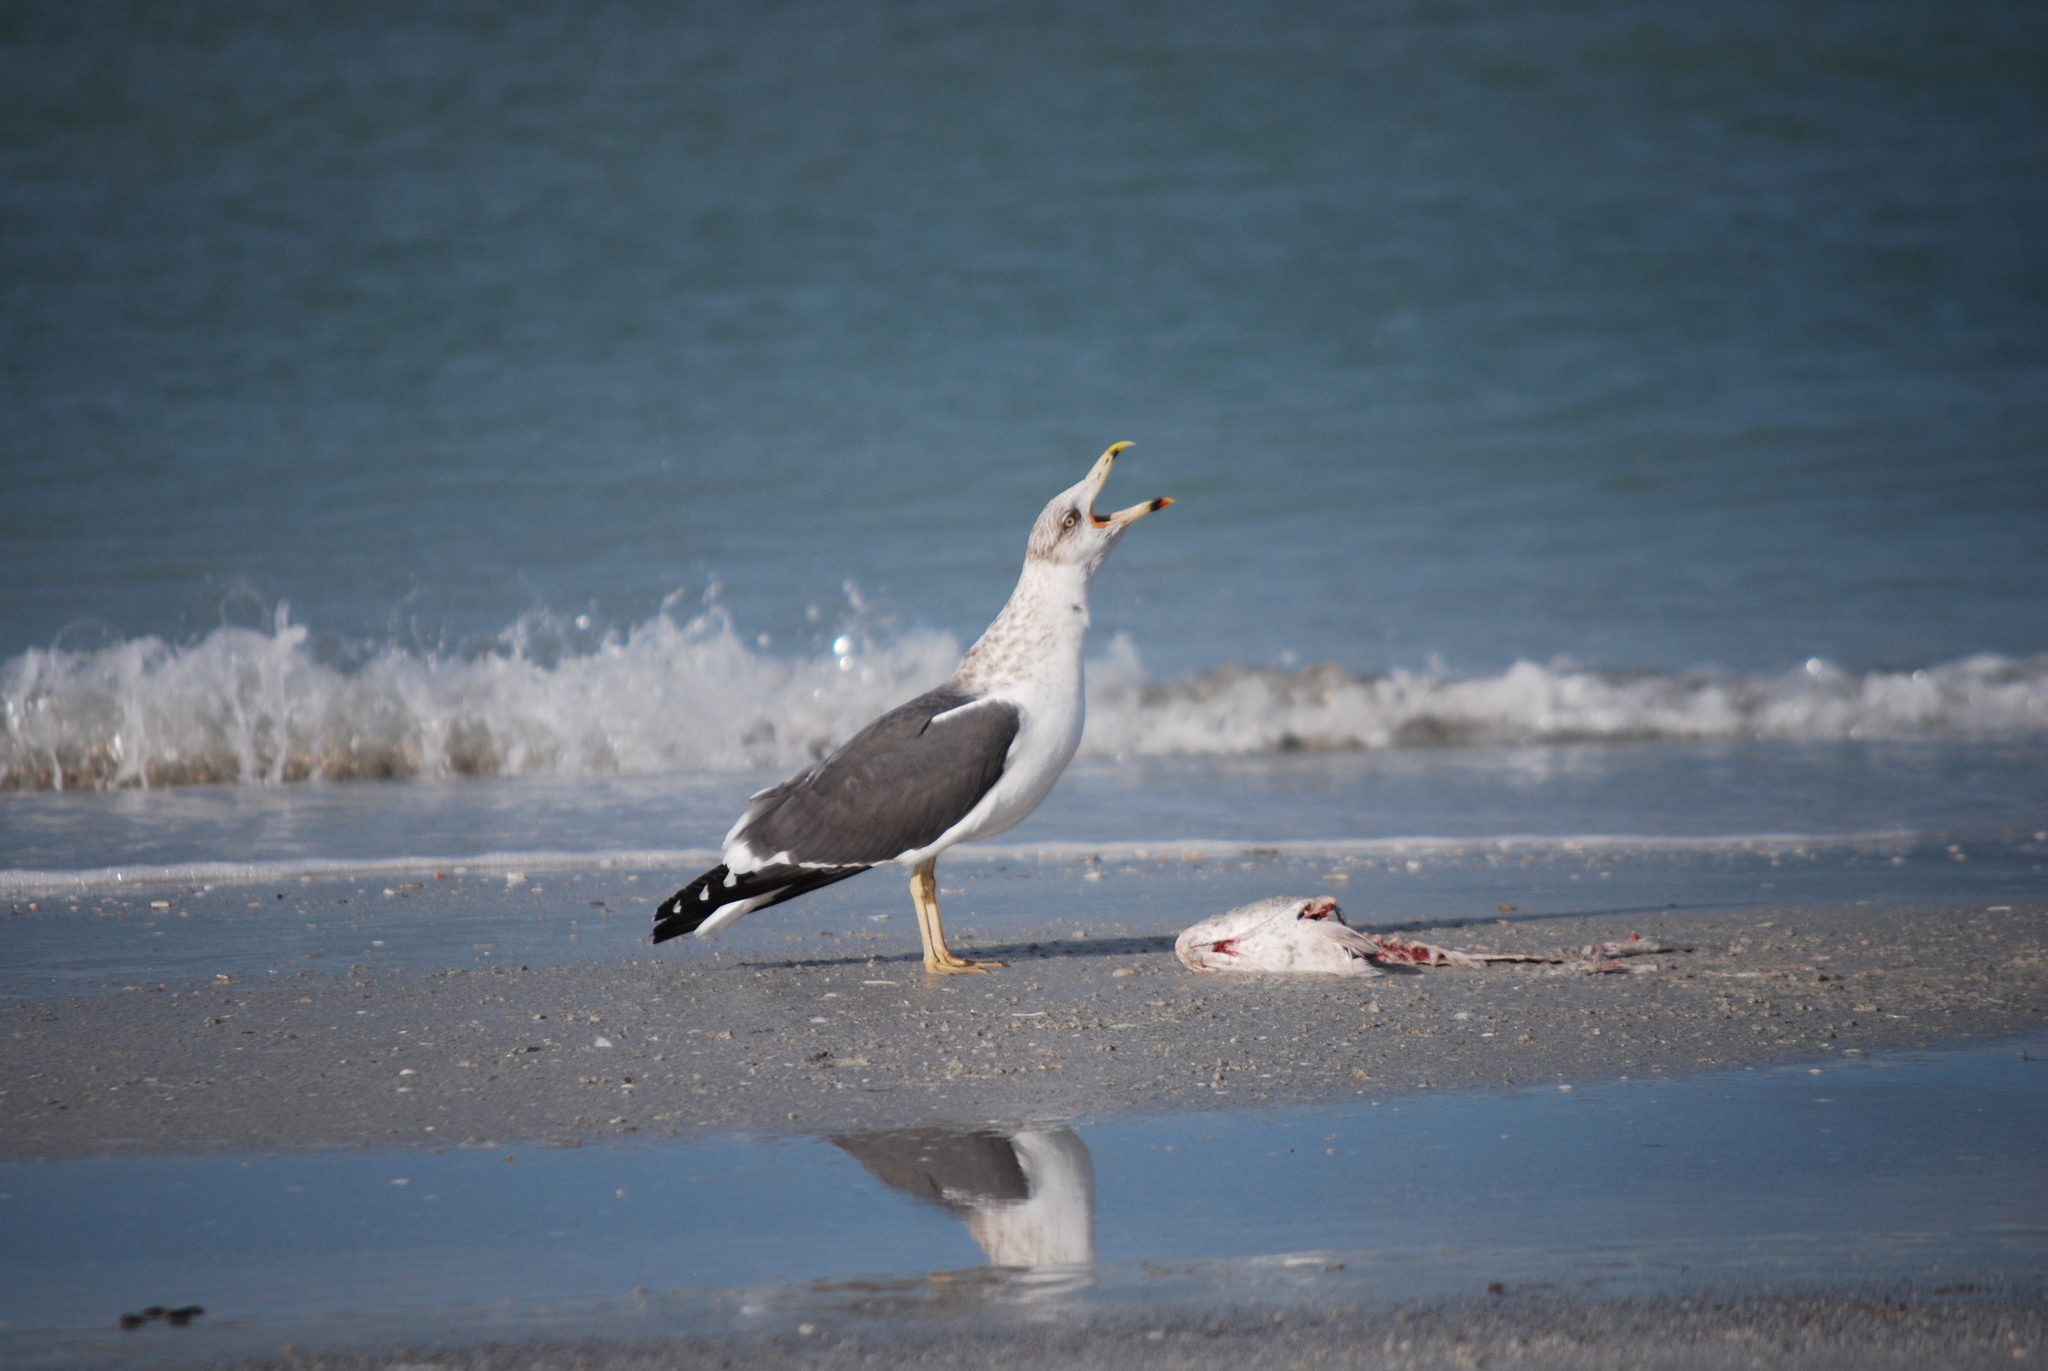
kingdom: Animalia
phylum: Chordata
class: Aves
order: Charadriiformes
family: Laridae
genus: Larus
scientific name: Larus fuscus
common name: Lesser black-backed gull
